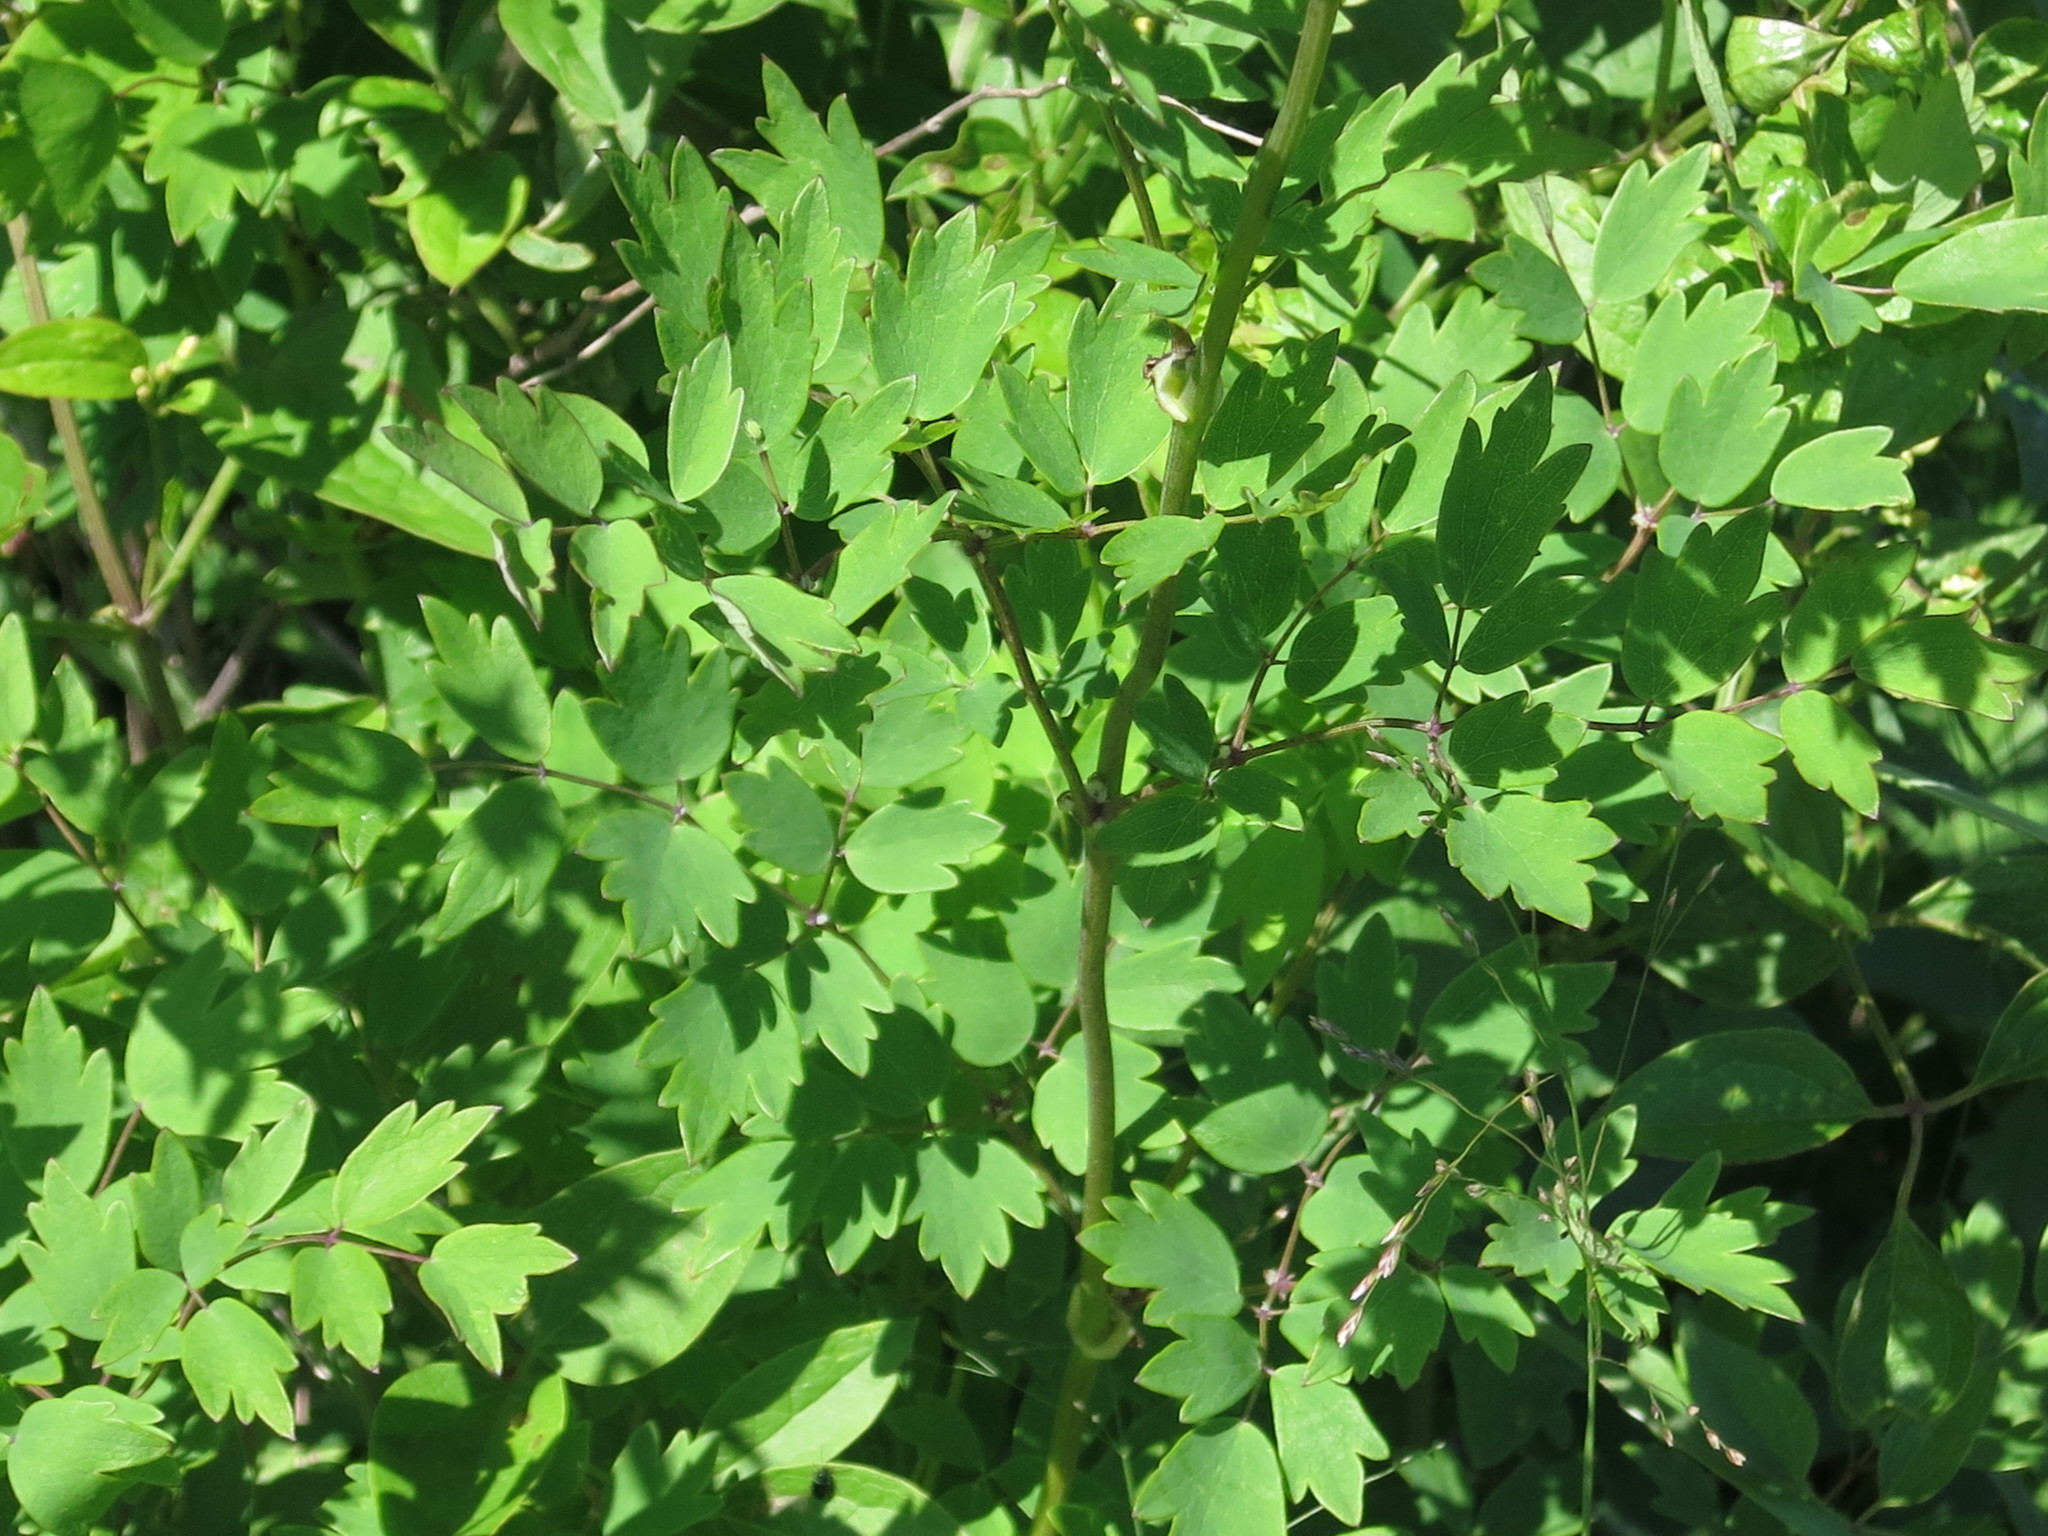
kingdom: Plantae
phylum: Tracheophyta
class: Magnoliopsida
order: Ranunculales
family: Ranunculaceae
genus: Thalictrum
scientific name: Thalictrum minus
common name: Lesser meadow-rue
